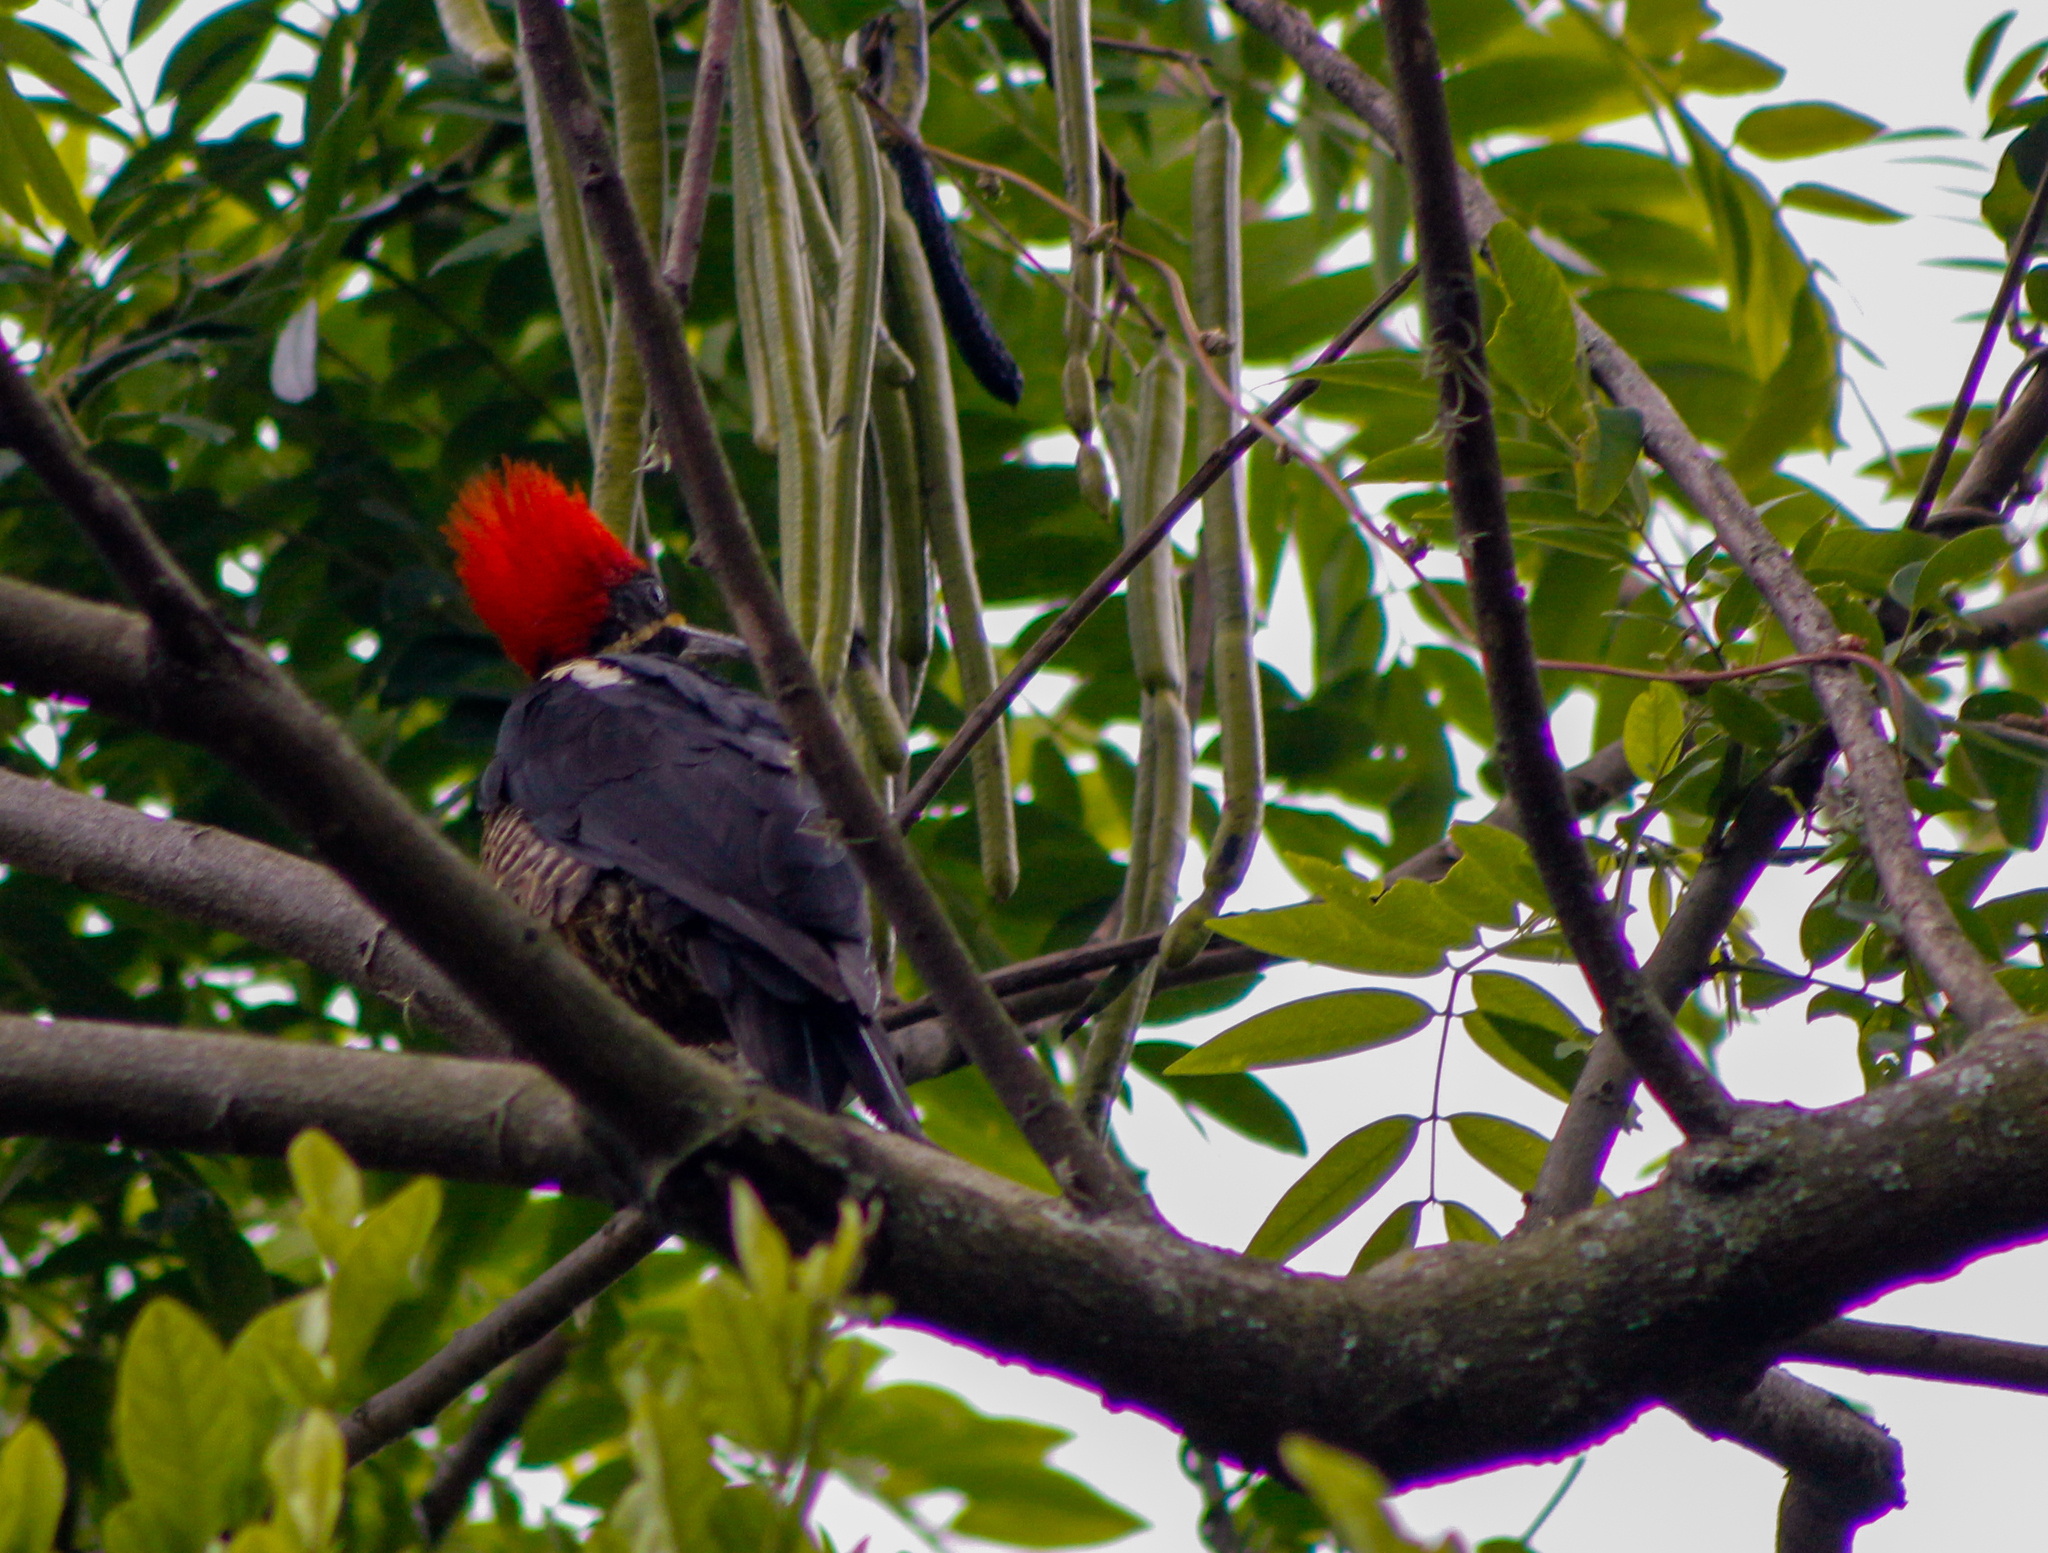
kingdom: Animalia
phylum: Chordata
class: Aves
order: Piciformes
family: Picidae
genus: Dryocopus
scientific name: Dryocopus lineatus
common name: Lineated woodpecker
